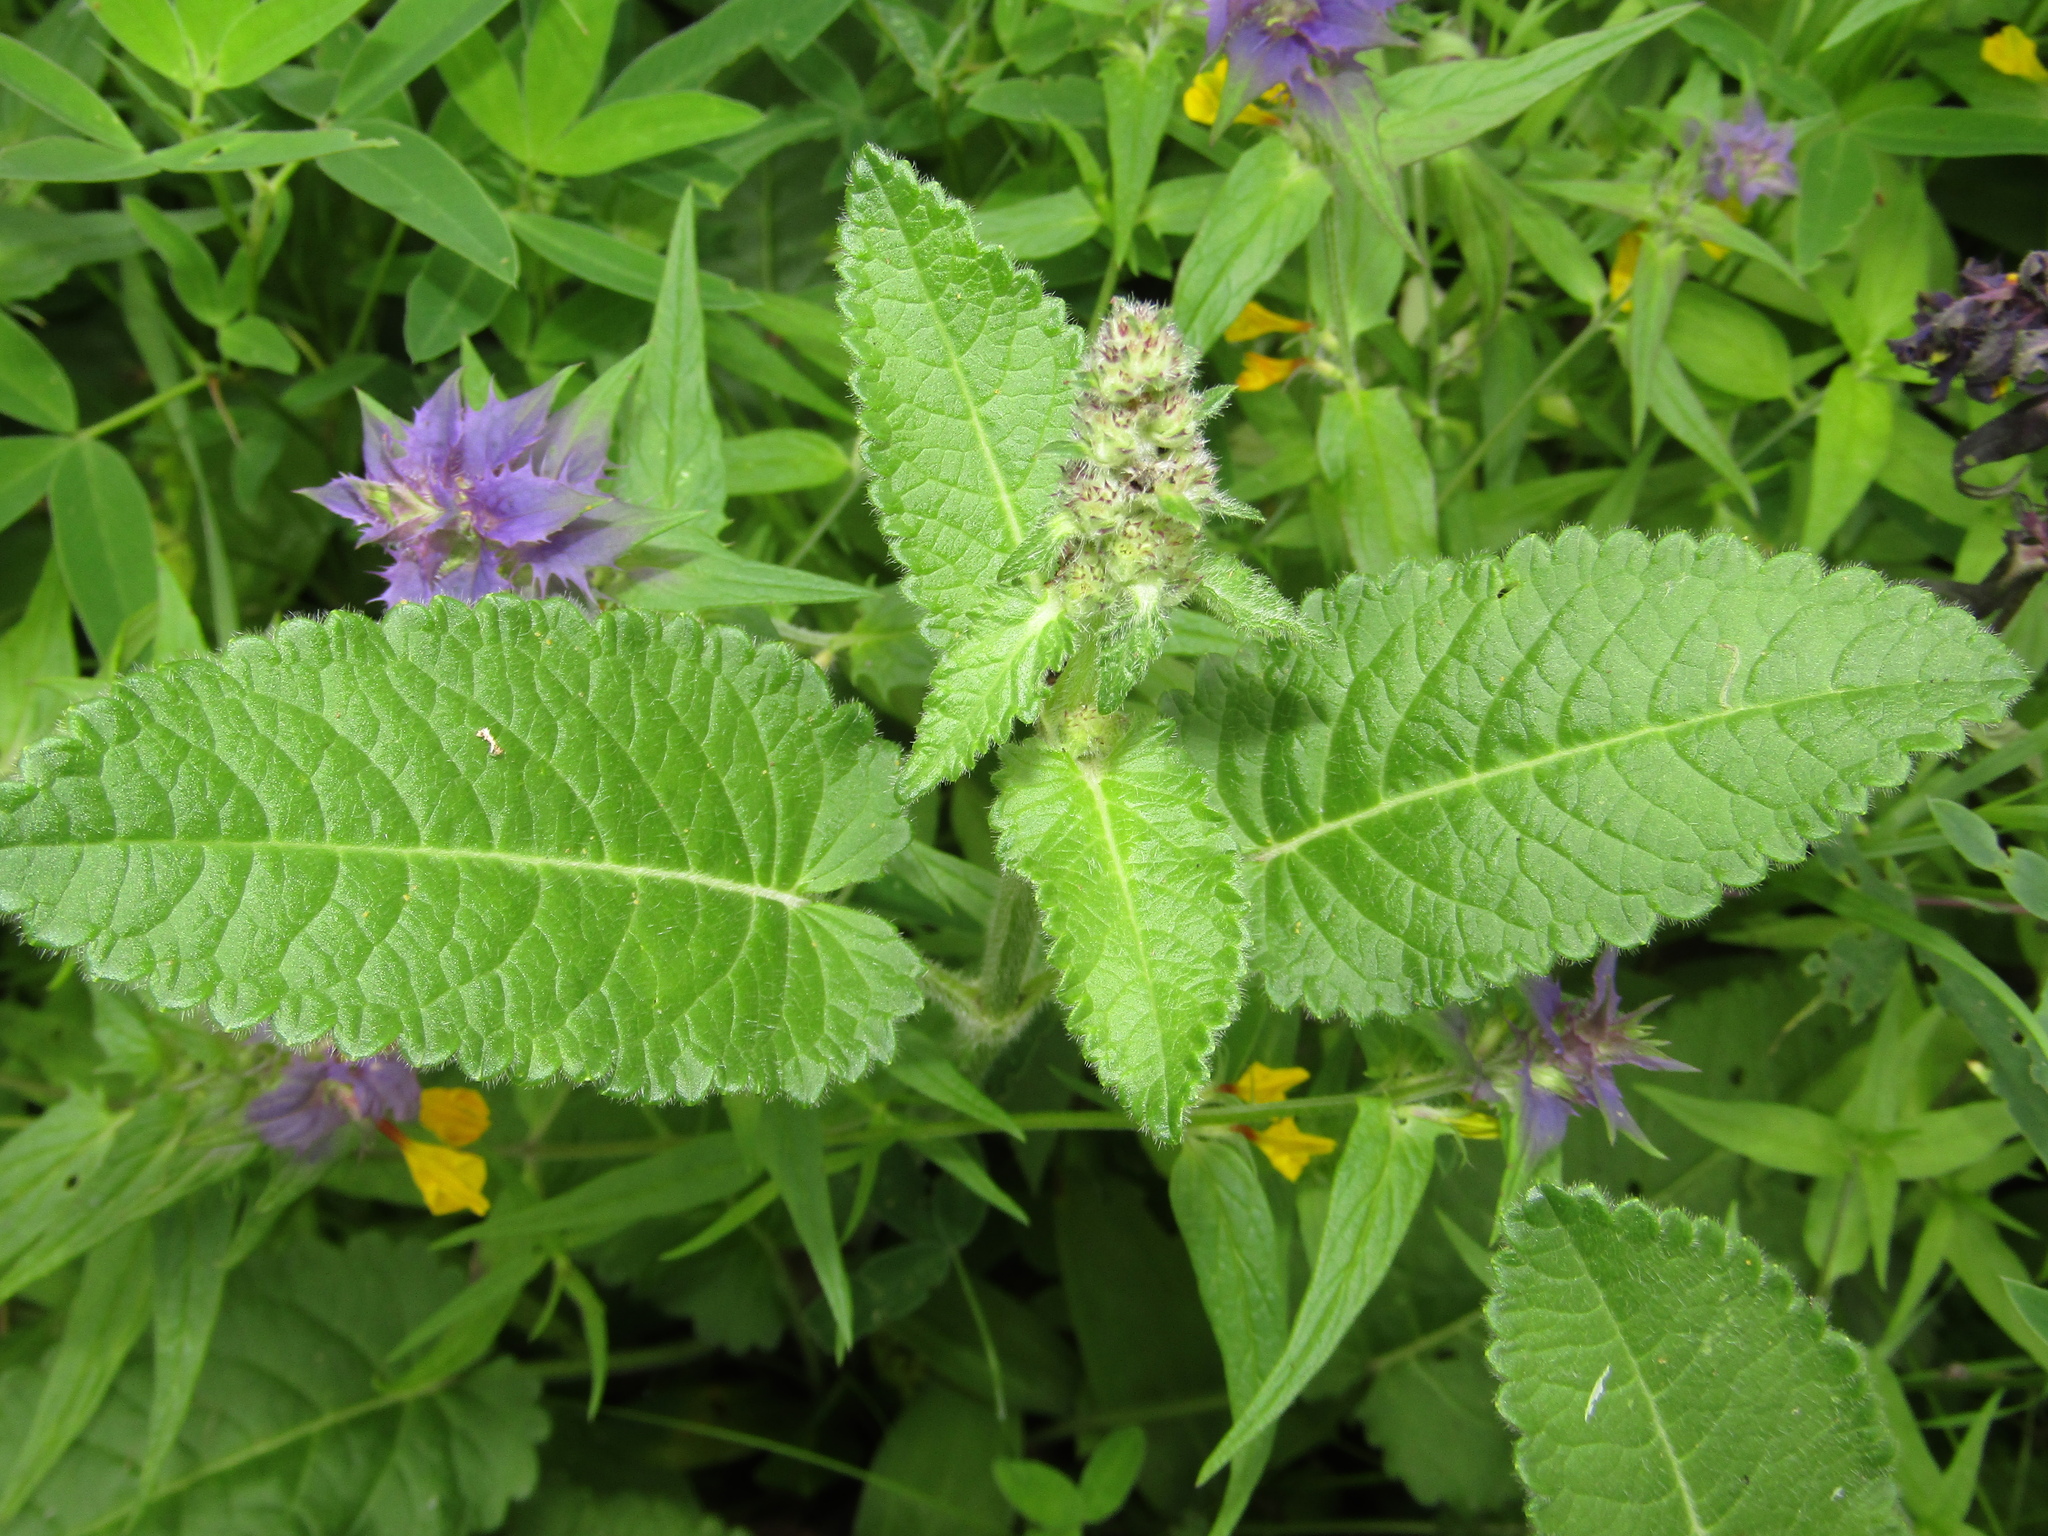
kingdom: Plantae
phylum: Tracheophyta
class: Magnoliopsida
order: Lamiales
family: Lamiaceae
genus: Betonica
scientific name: Betonica officinalis
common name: Bishop's-wort
